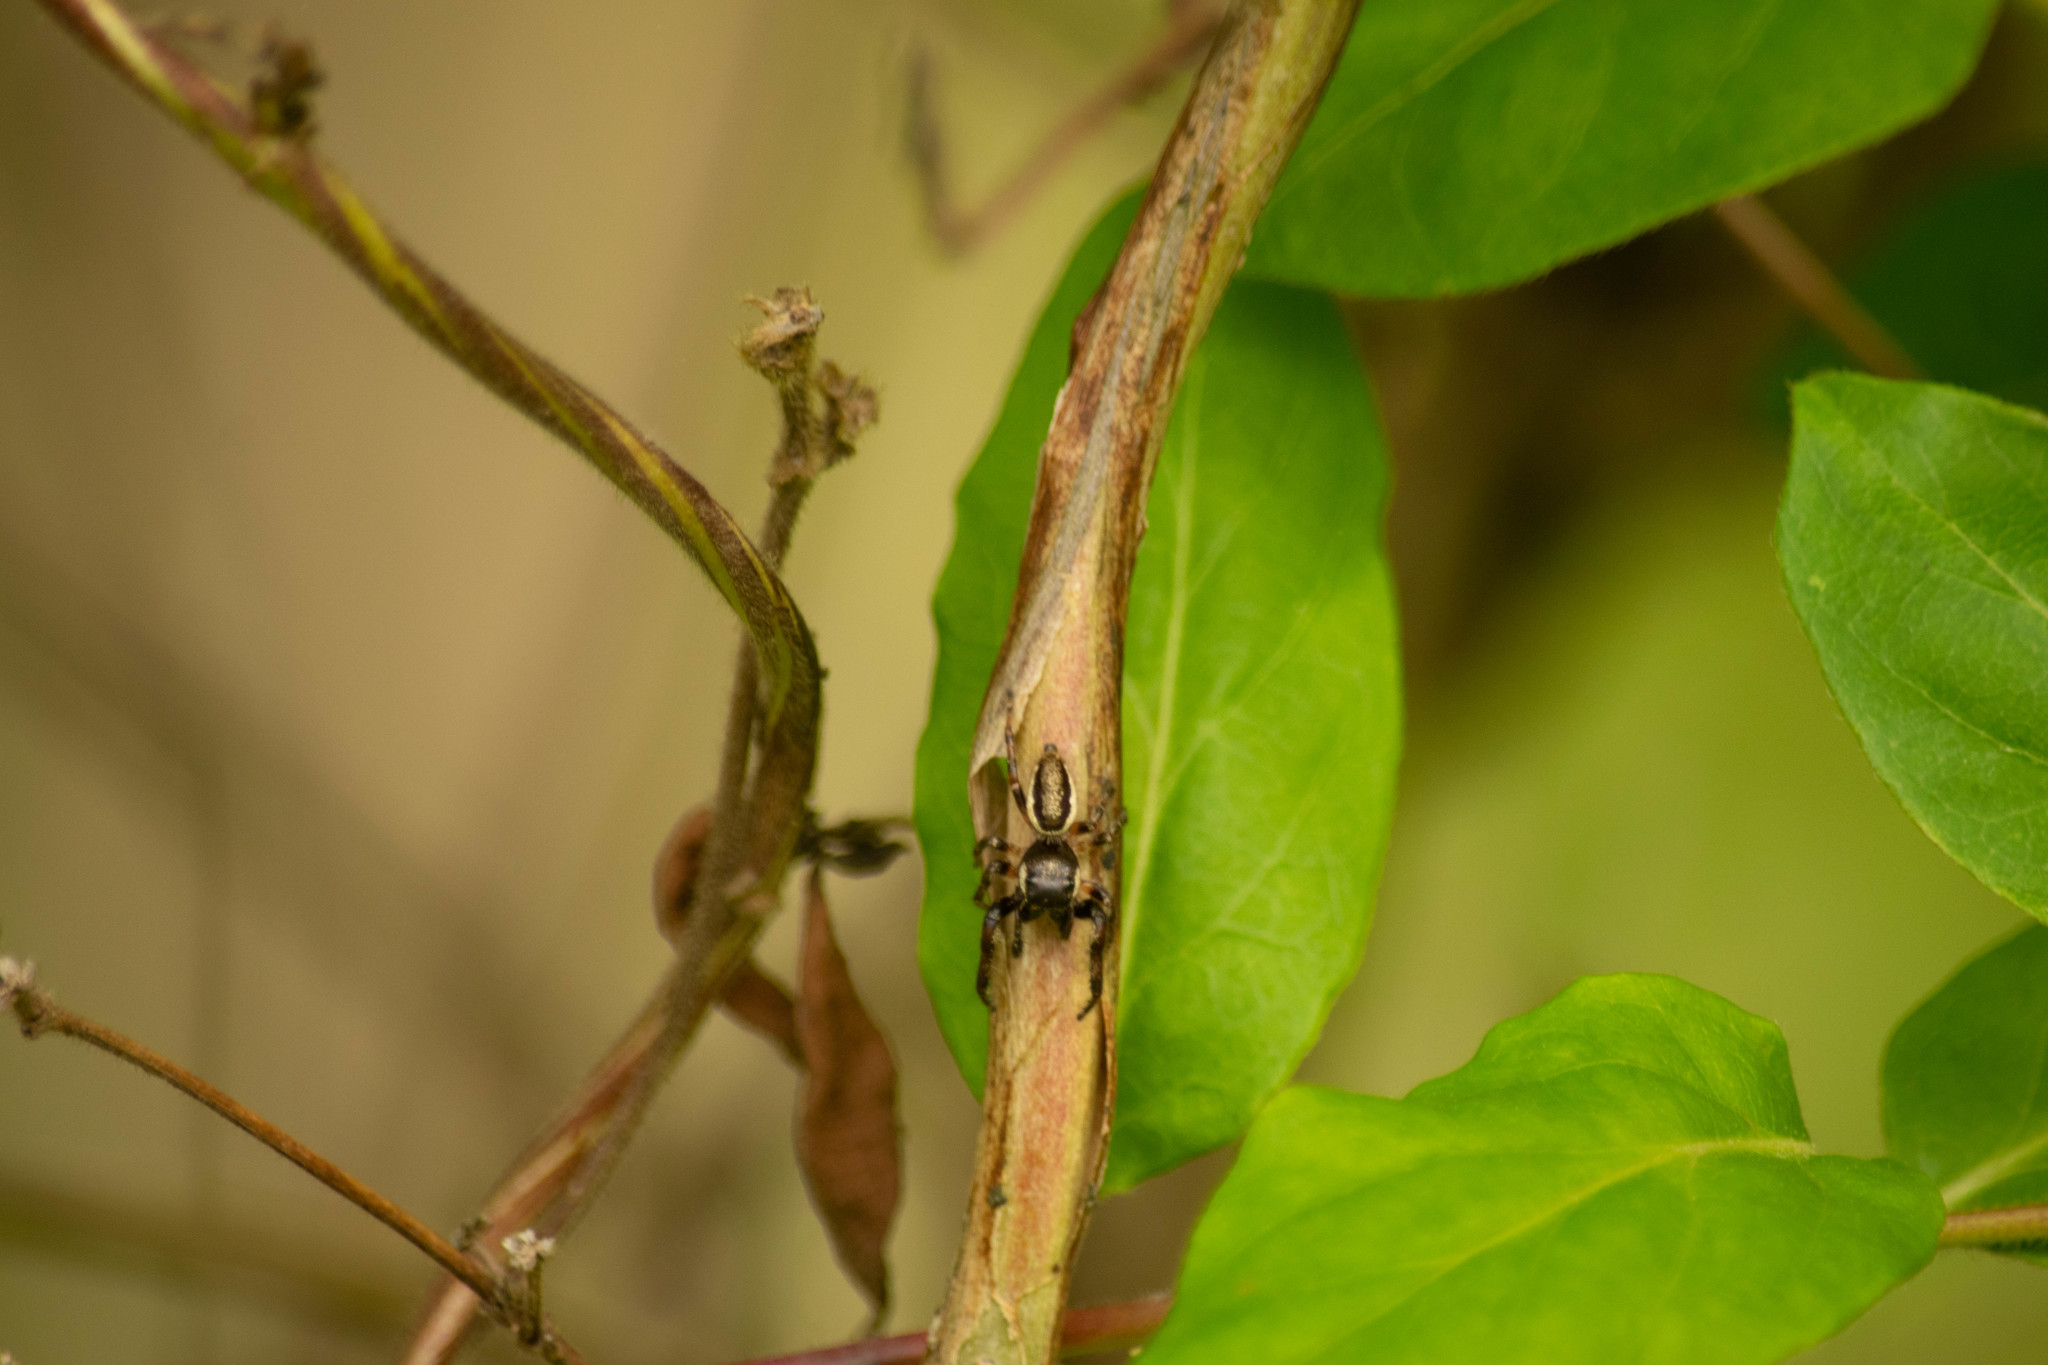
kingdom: Plantae
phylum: Tracheophyta
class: Magnoliopsida
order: Dipsacales
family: Caprifoliaceae
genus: Lonicera
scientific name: Lonicera japonica
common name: Japanese honeysuckle
